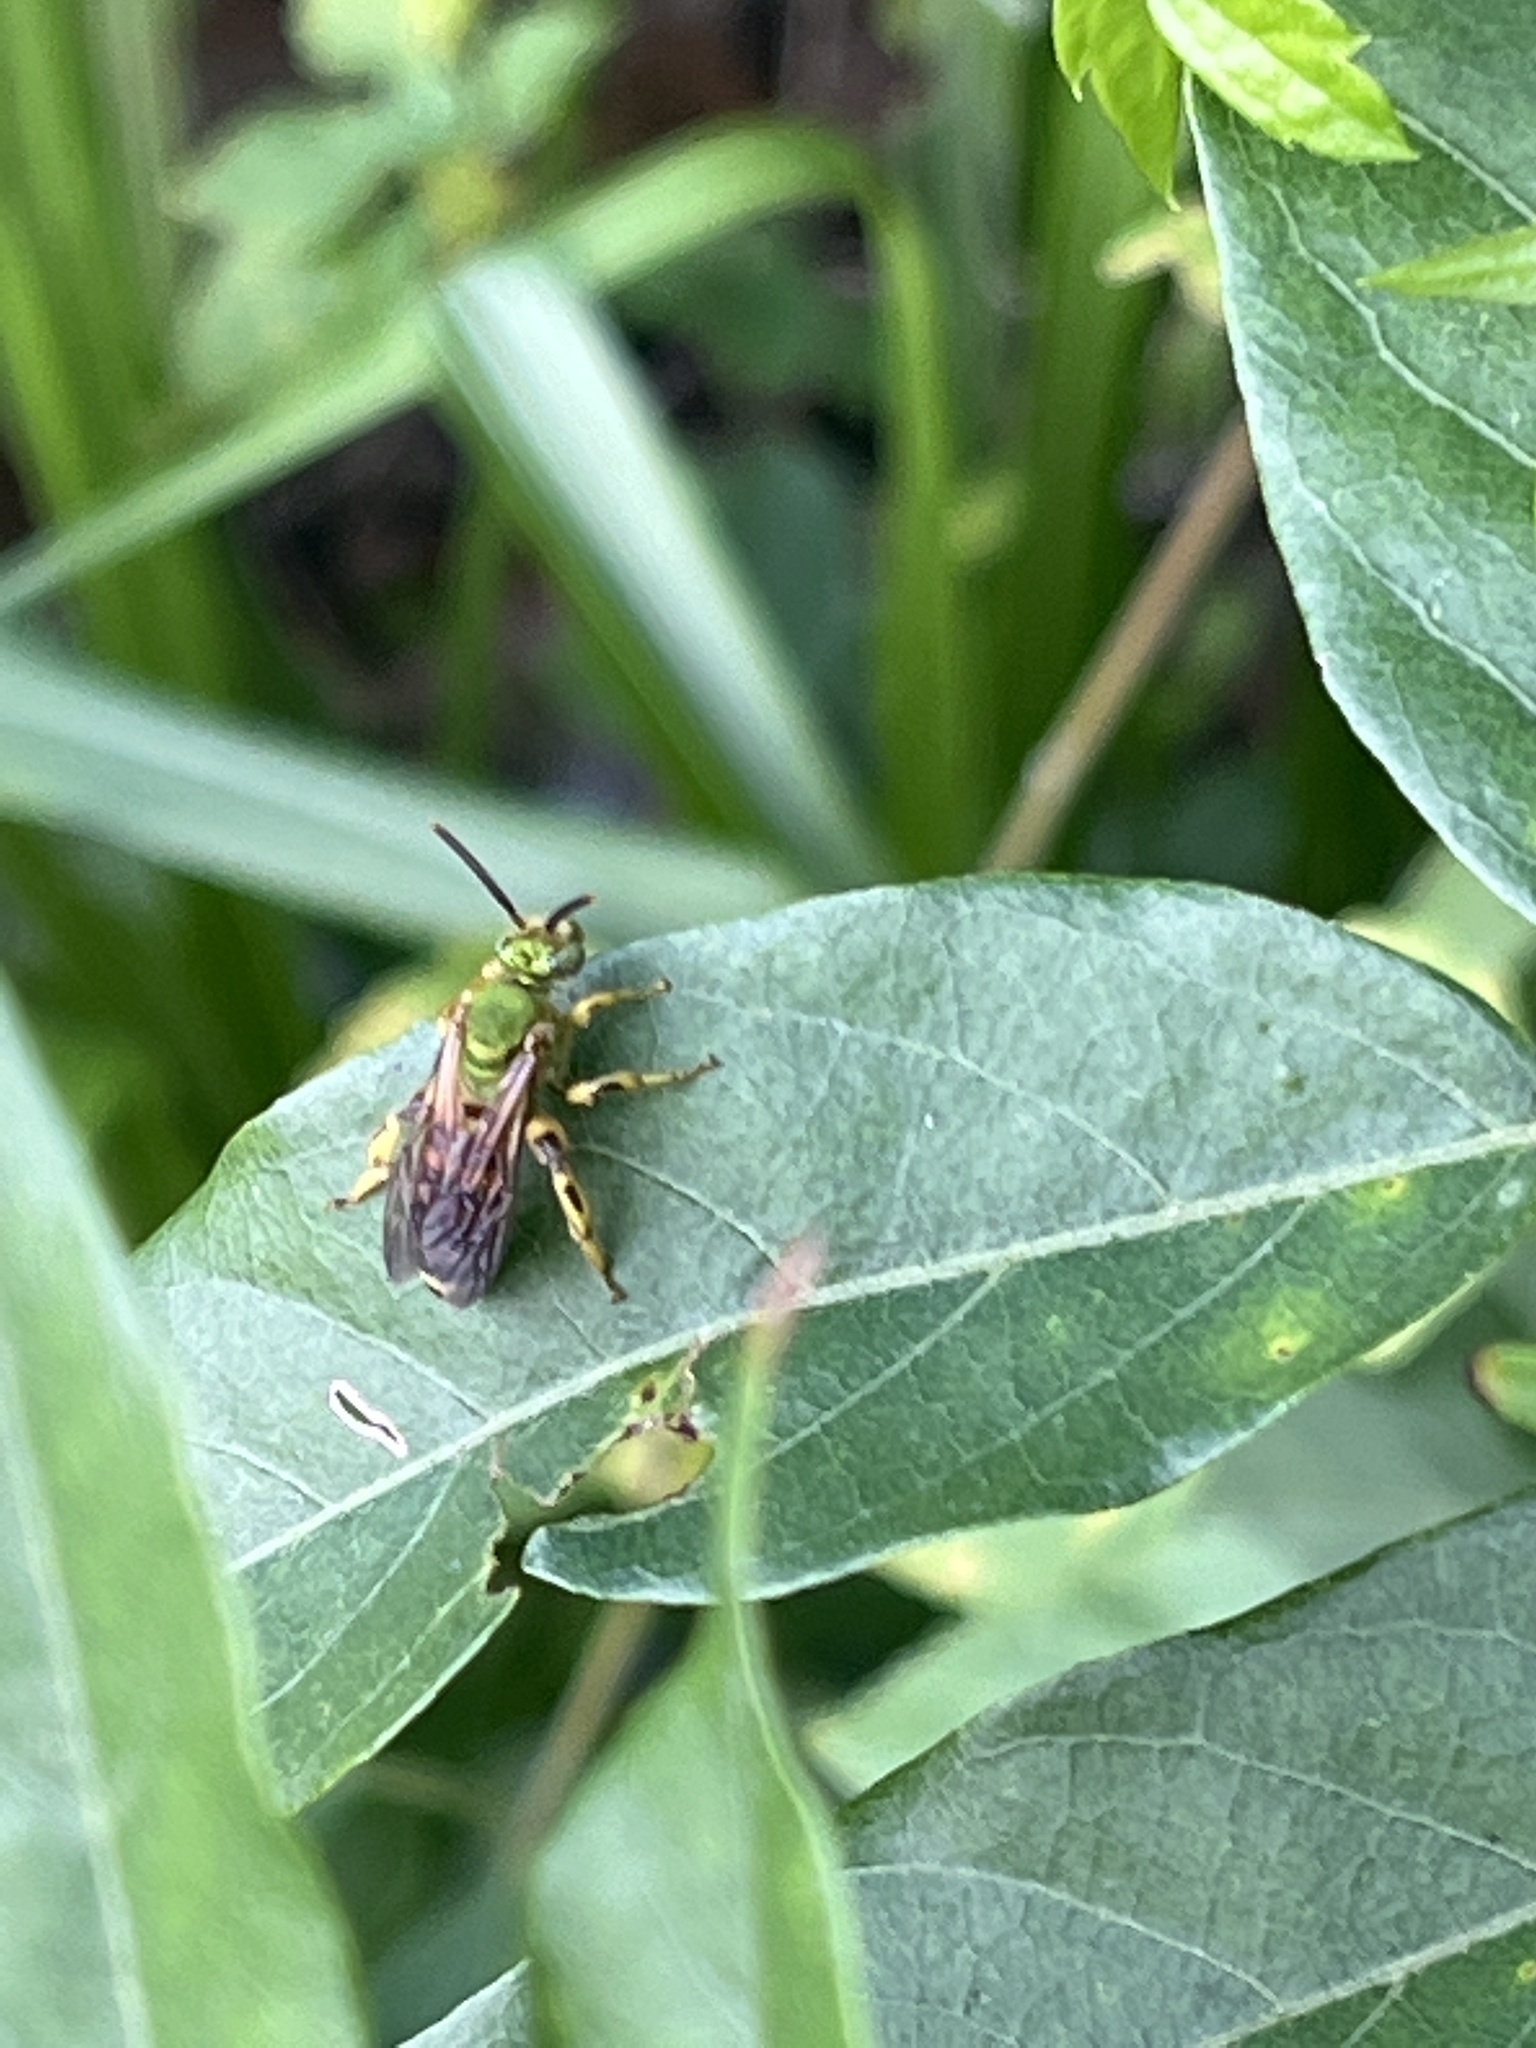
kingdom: Animalia
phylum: Arthropoda
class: Insecta
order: Hymenoptera
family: Halictidae
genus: Agapostemon
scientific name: Agapostemon splendens
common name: Brown-winged striped sweat bee
